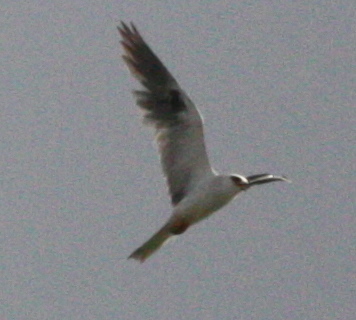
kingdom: Animalia
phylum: Chordata
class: Aves
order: Accipitriformes
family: Accipitridae
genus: Elanus
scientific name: Elanus leucurus
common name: White-tailed kite
